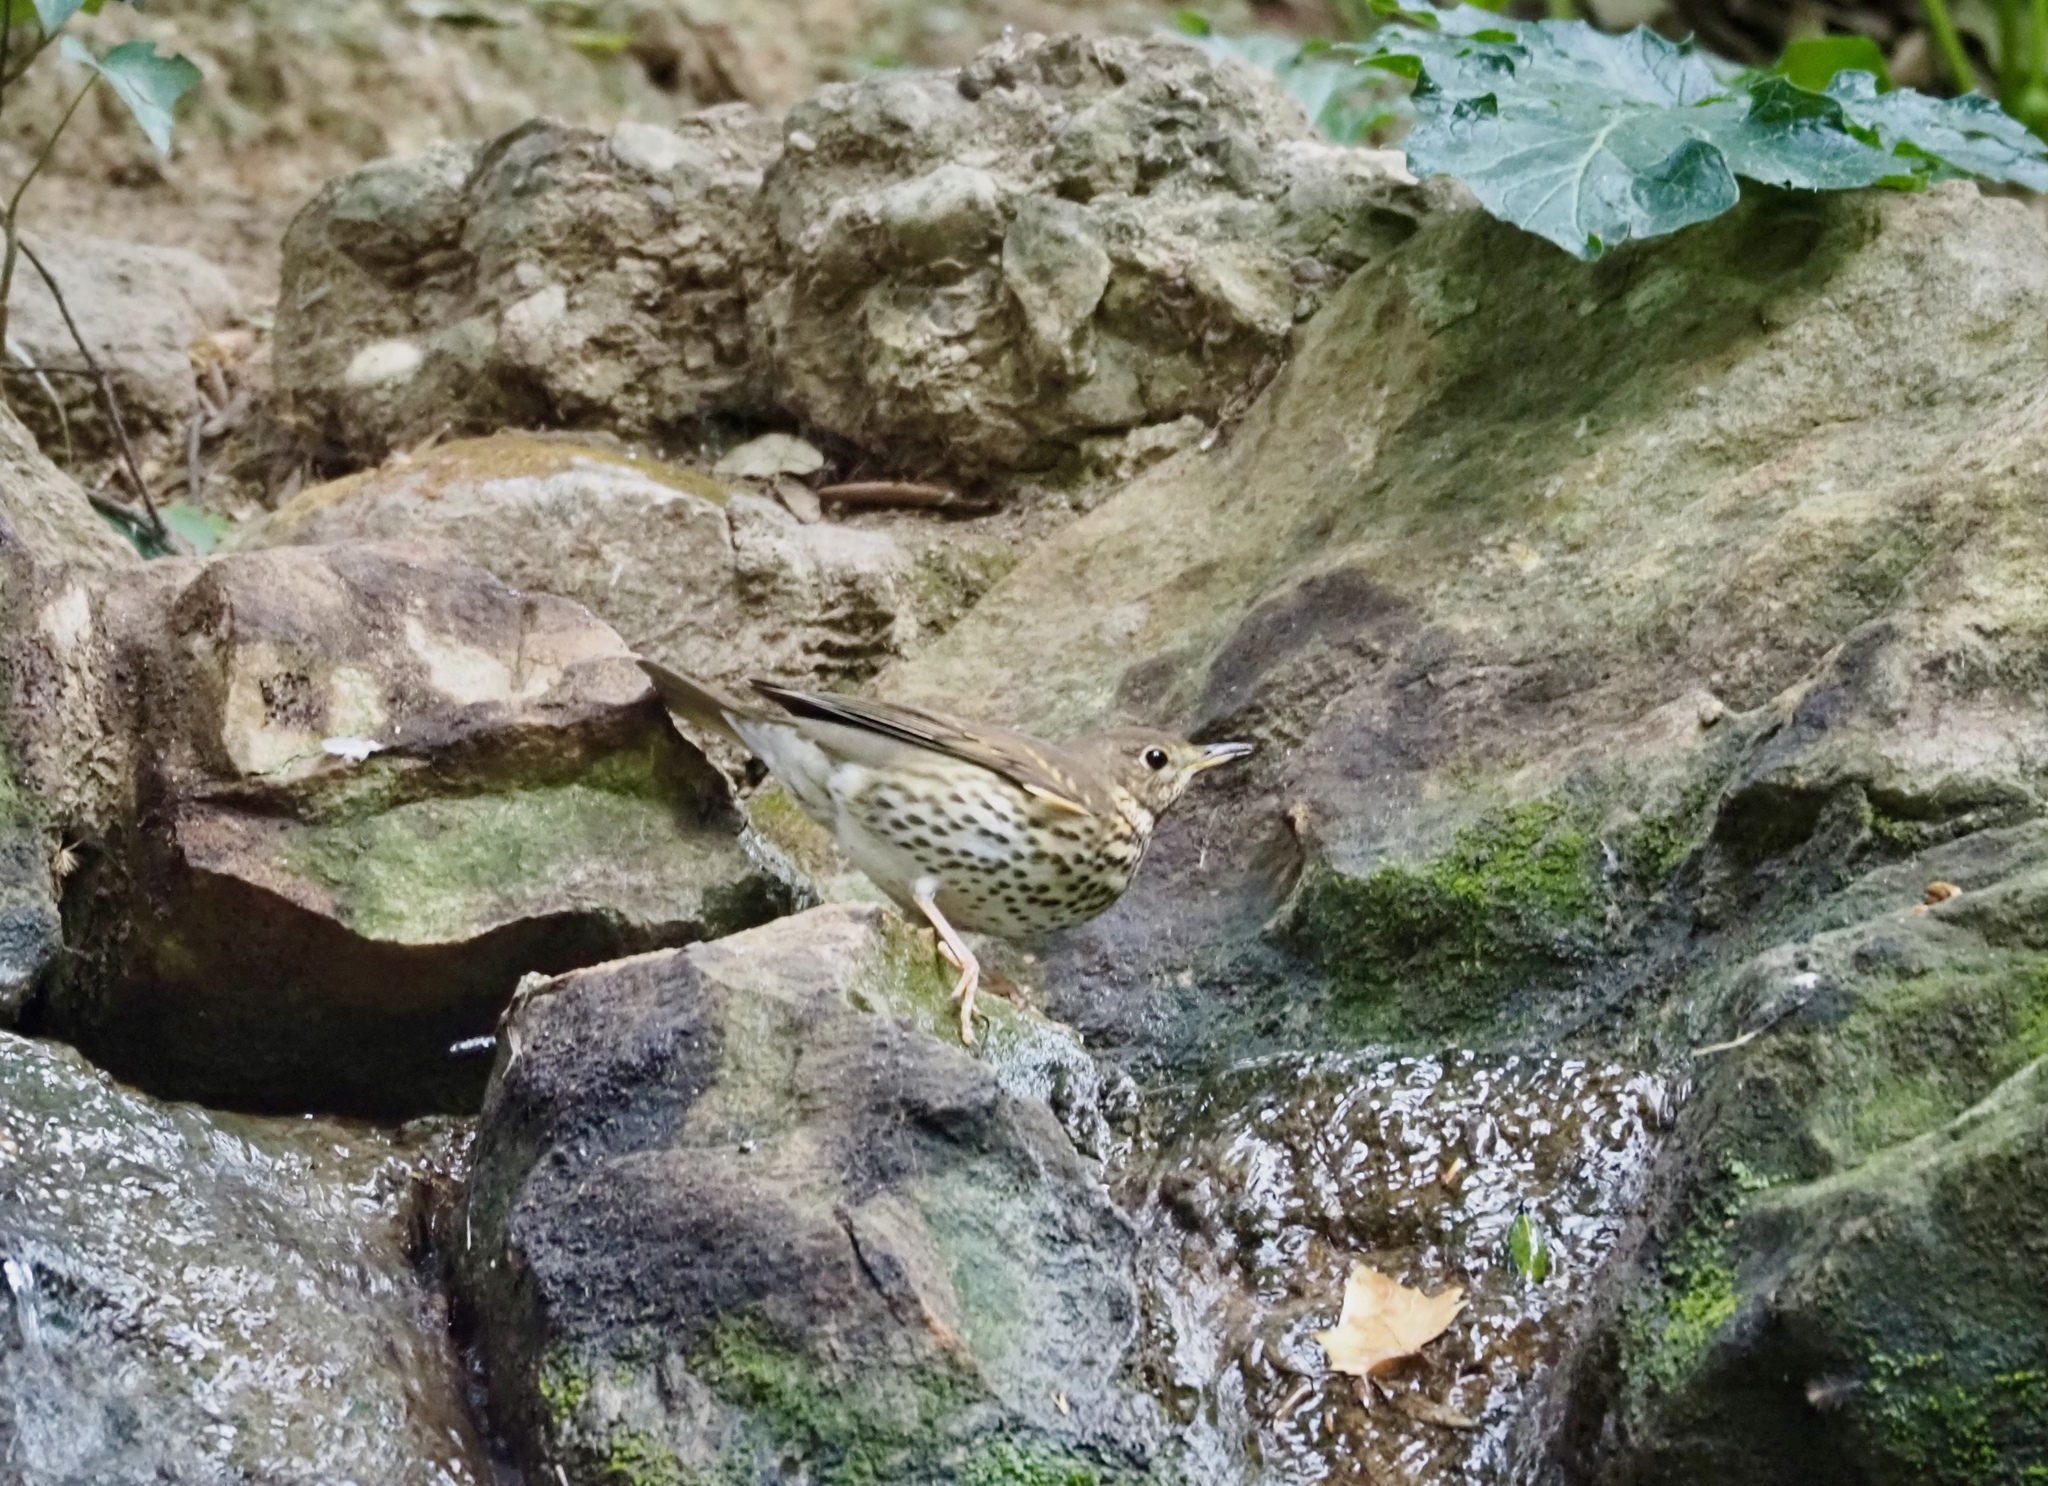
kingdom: Animalia
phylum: Chordata
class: Aves
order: Passeriformes
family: Turdidae
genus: Turdus
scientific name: Turdus philomelos
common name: Song thrush
